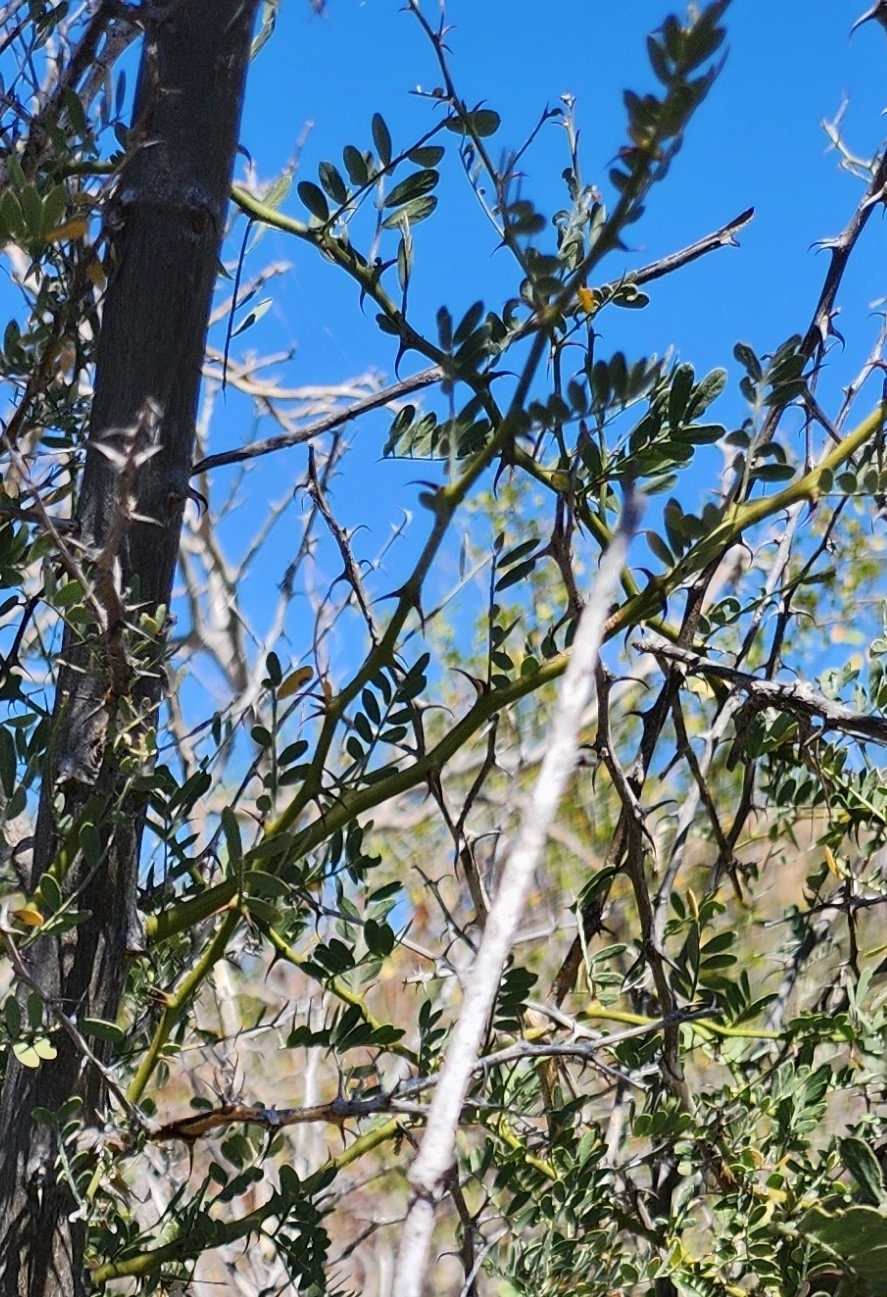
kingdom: Plantae
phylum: Tracheophyta
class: Magnoliopsida
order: Fabales
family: Fabaceae
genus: Olneya
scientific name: Olneya tesota
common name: Desert ironwood
